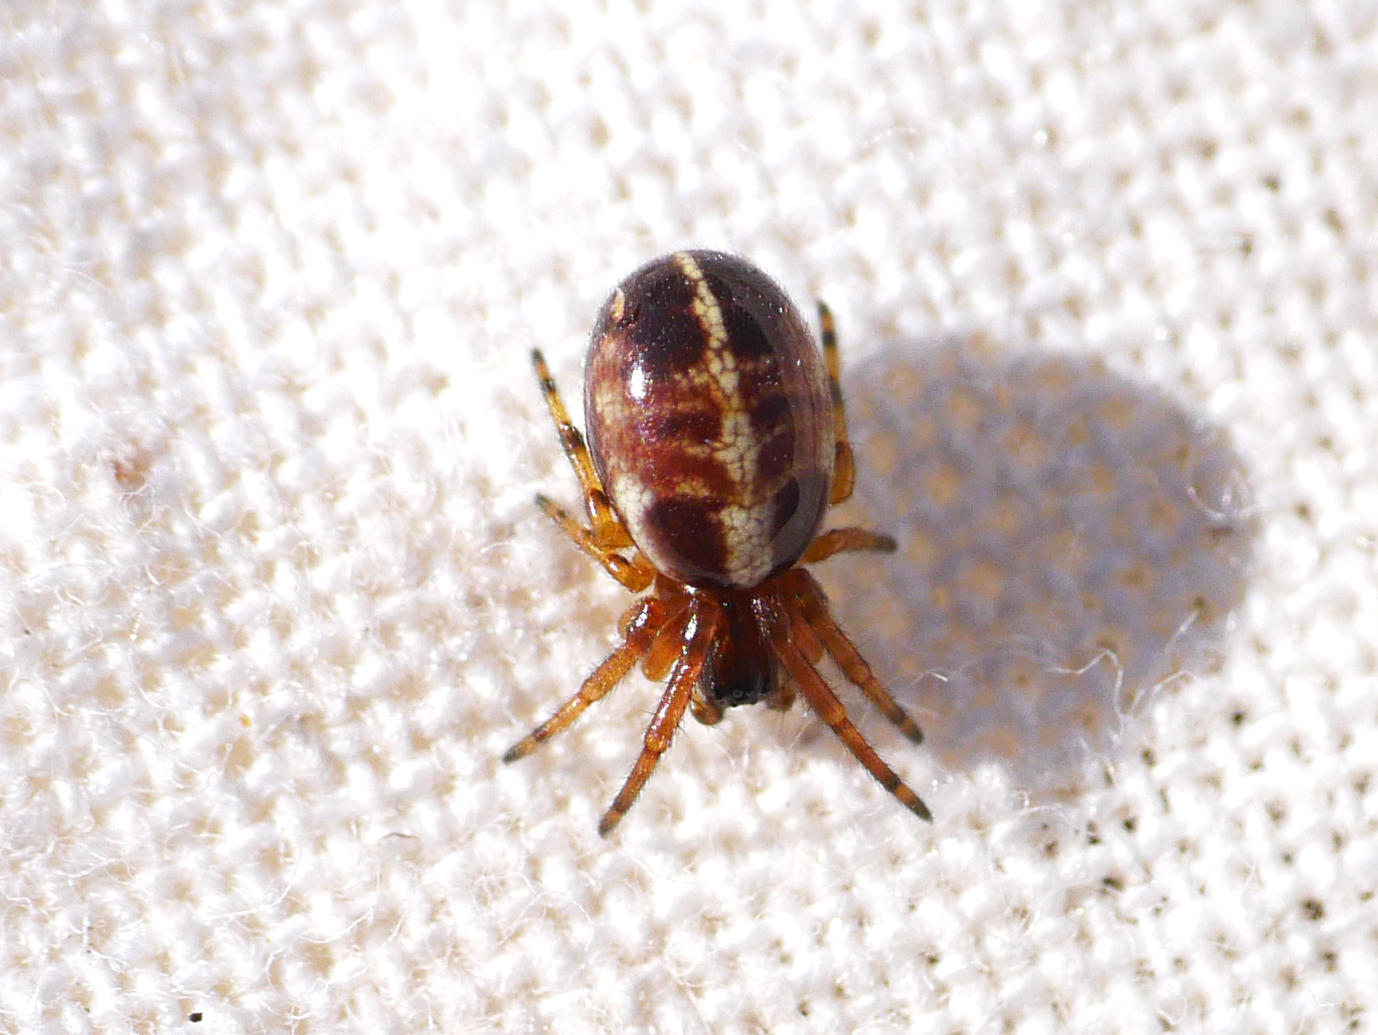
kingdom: Animalia
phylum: Arthropoda
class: Arachnida
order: Araneae
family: Araneidae
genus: Singa
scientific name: Singa hamata
